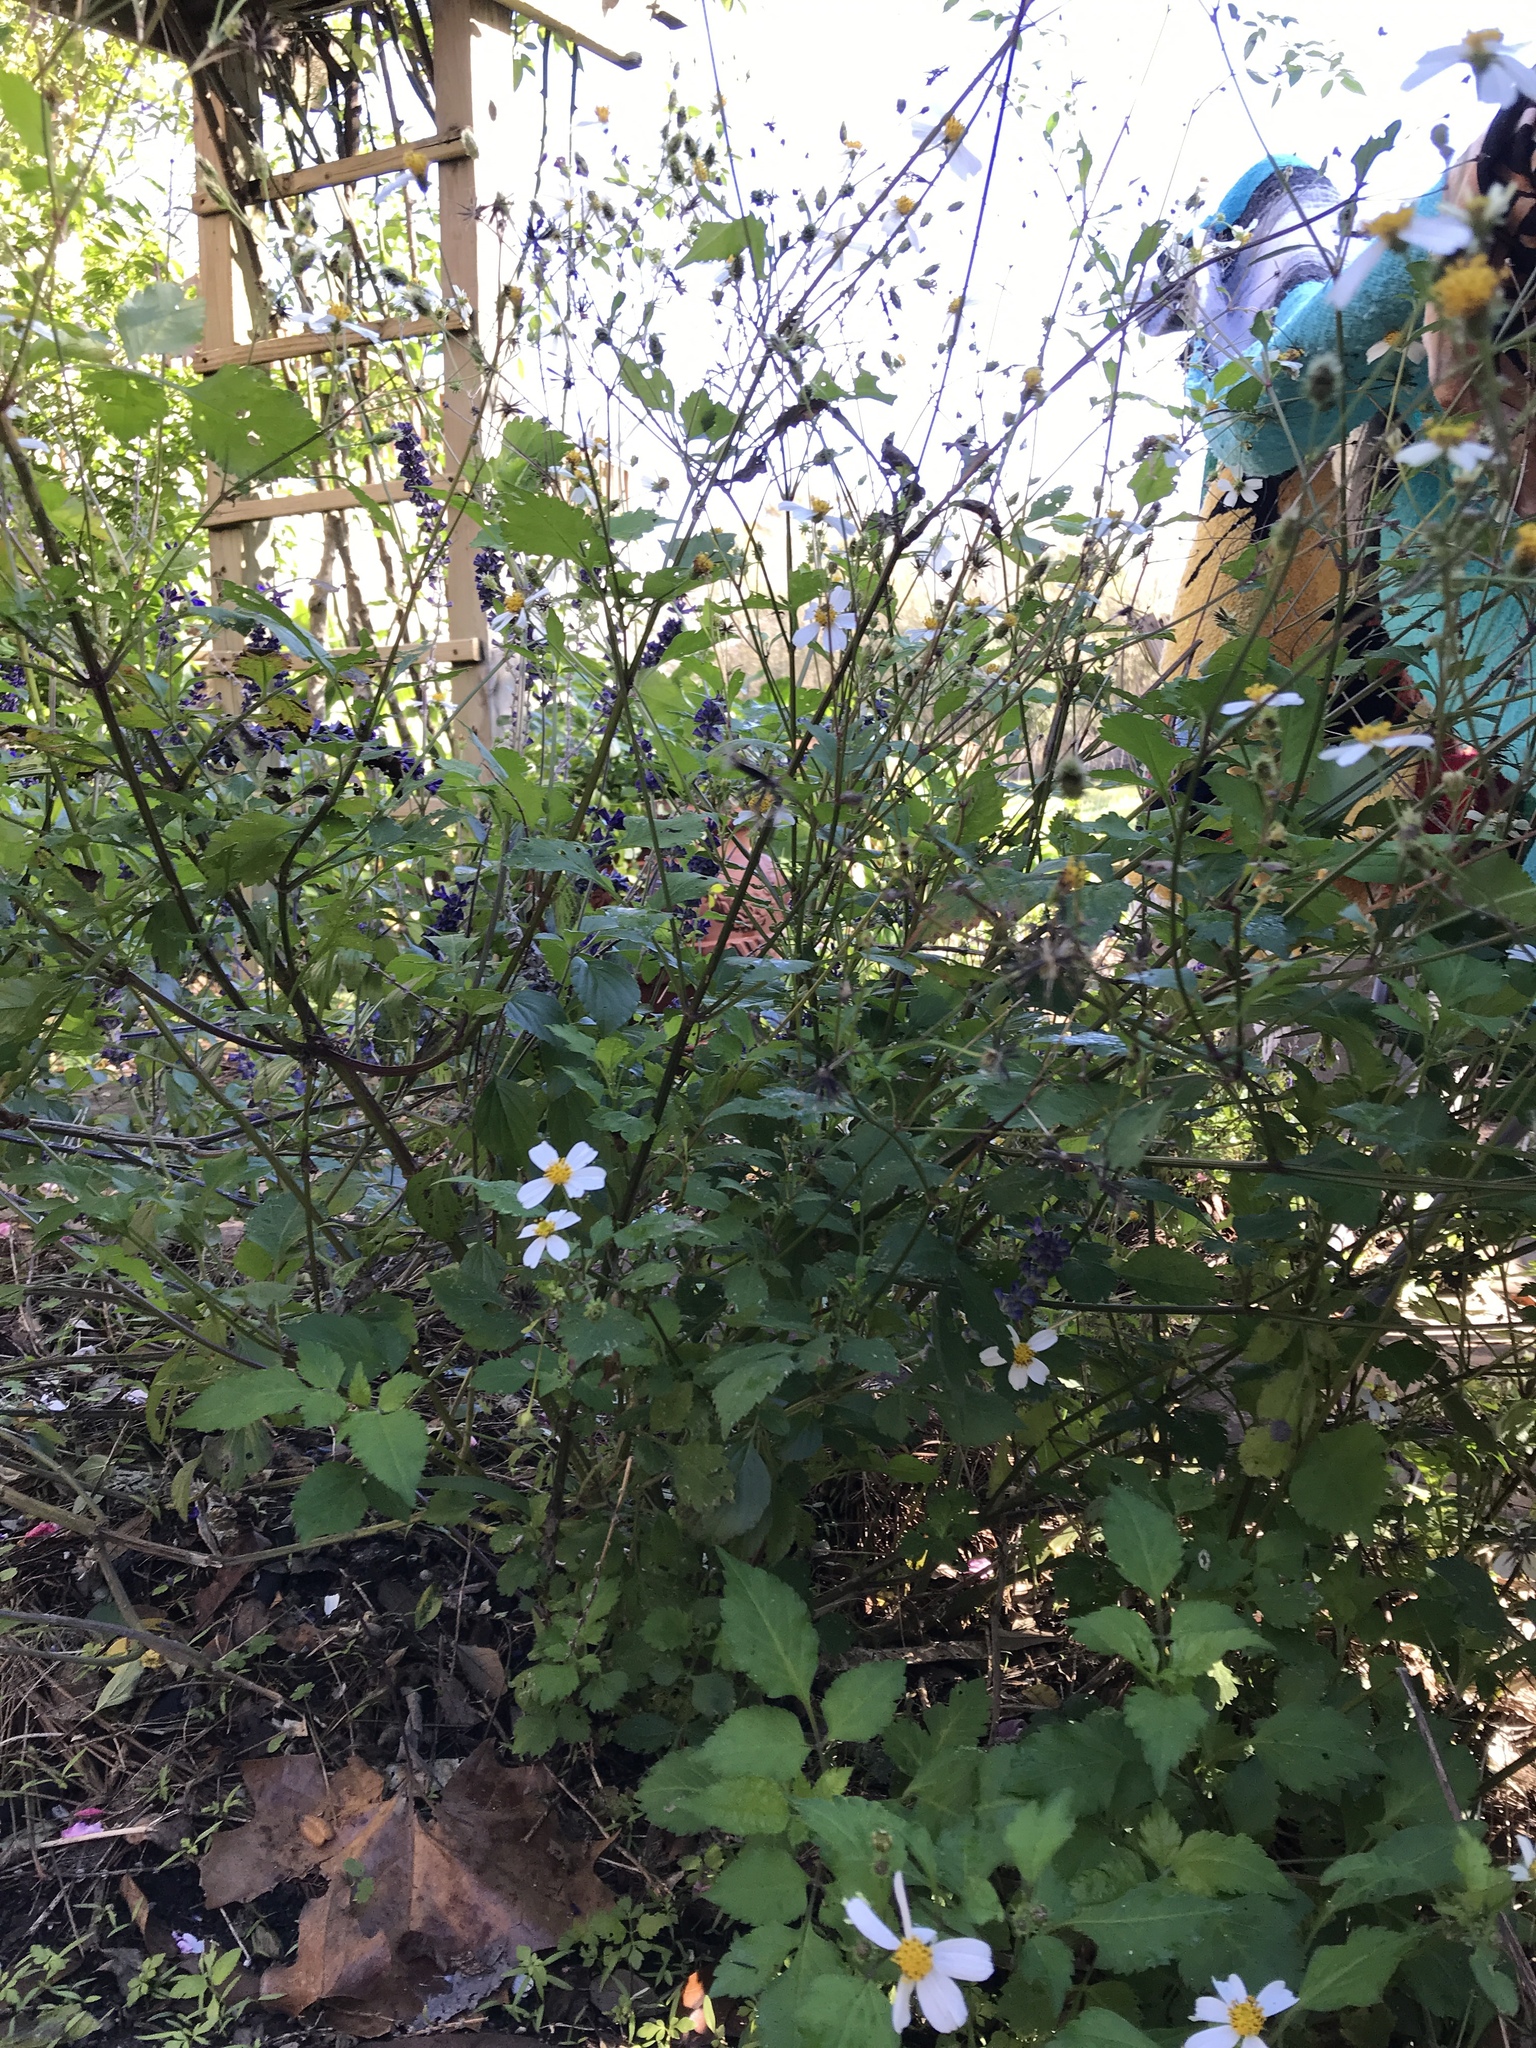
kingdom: Plantae
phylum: Tracheophyta
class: Magnoliopsida
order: Asterales
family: Asteraceae
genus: Bidens
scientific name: Bidens alba
